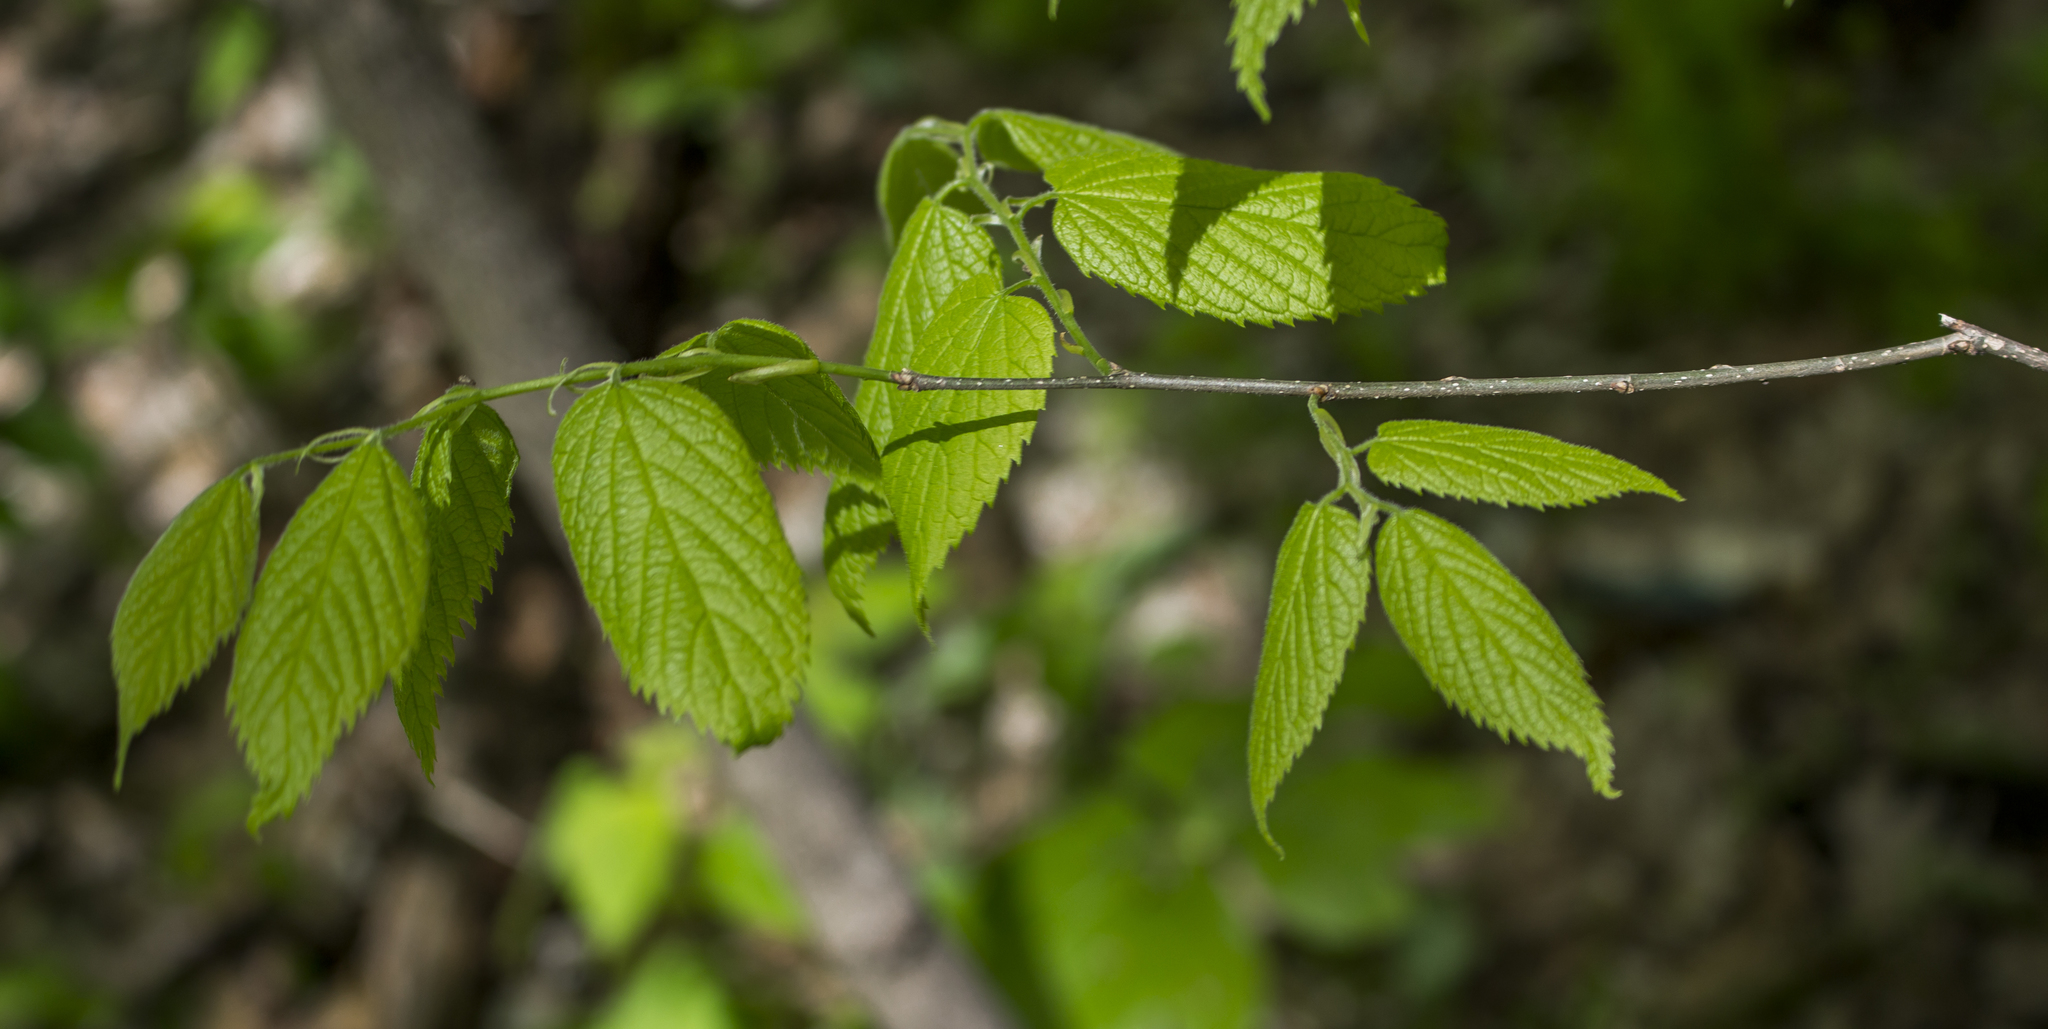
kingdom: Plantae
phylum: Tracheophyta
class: Magnoliopsida
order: Rosales
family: Cannabaceae
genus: Celtis
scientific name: Celtis occidentalis
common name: Common hackberry
